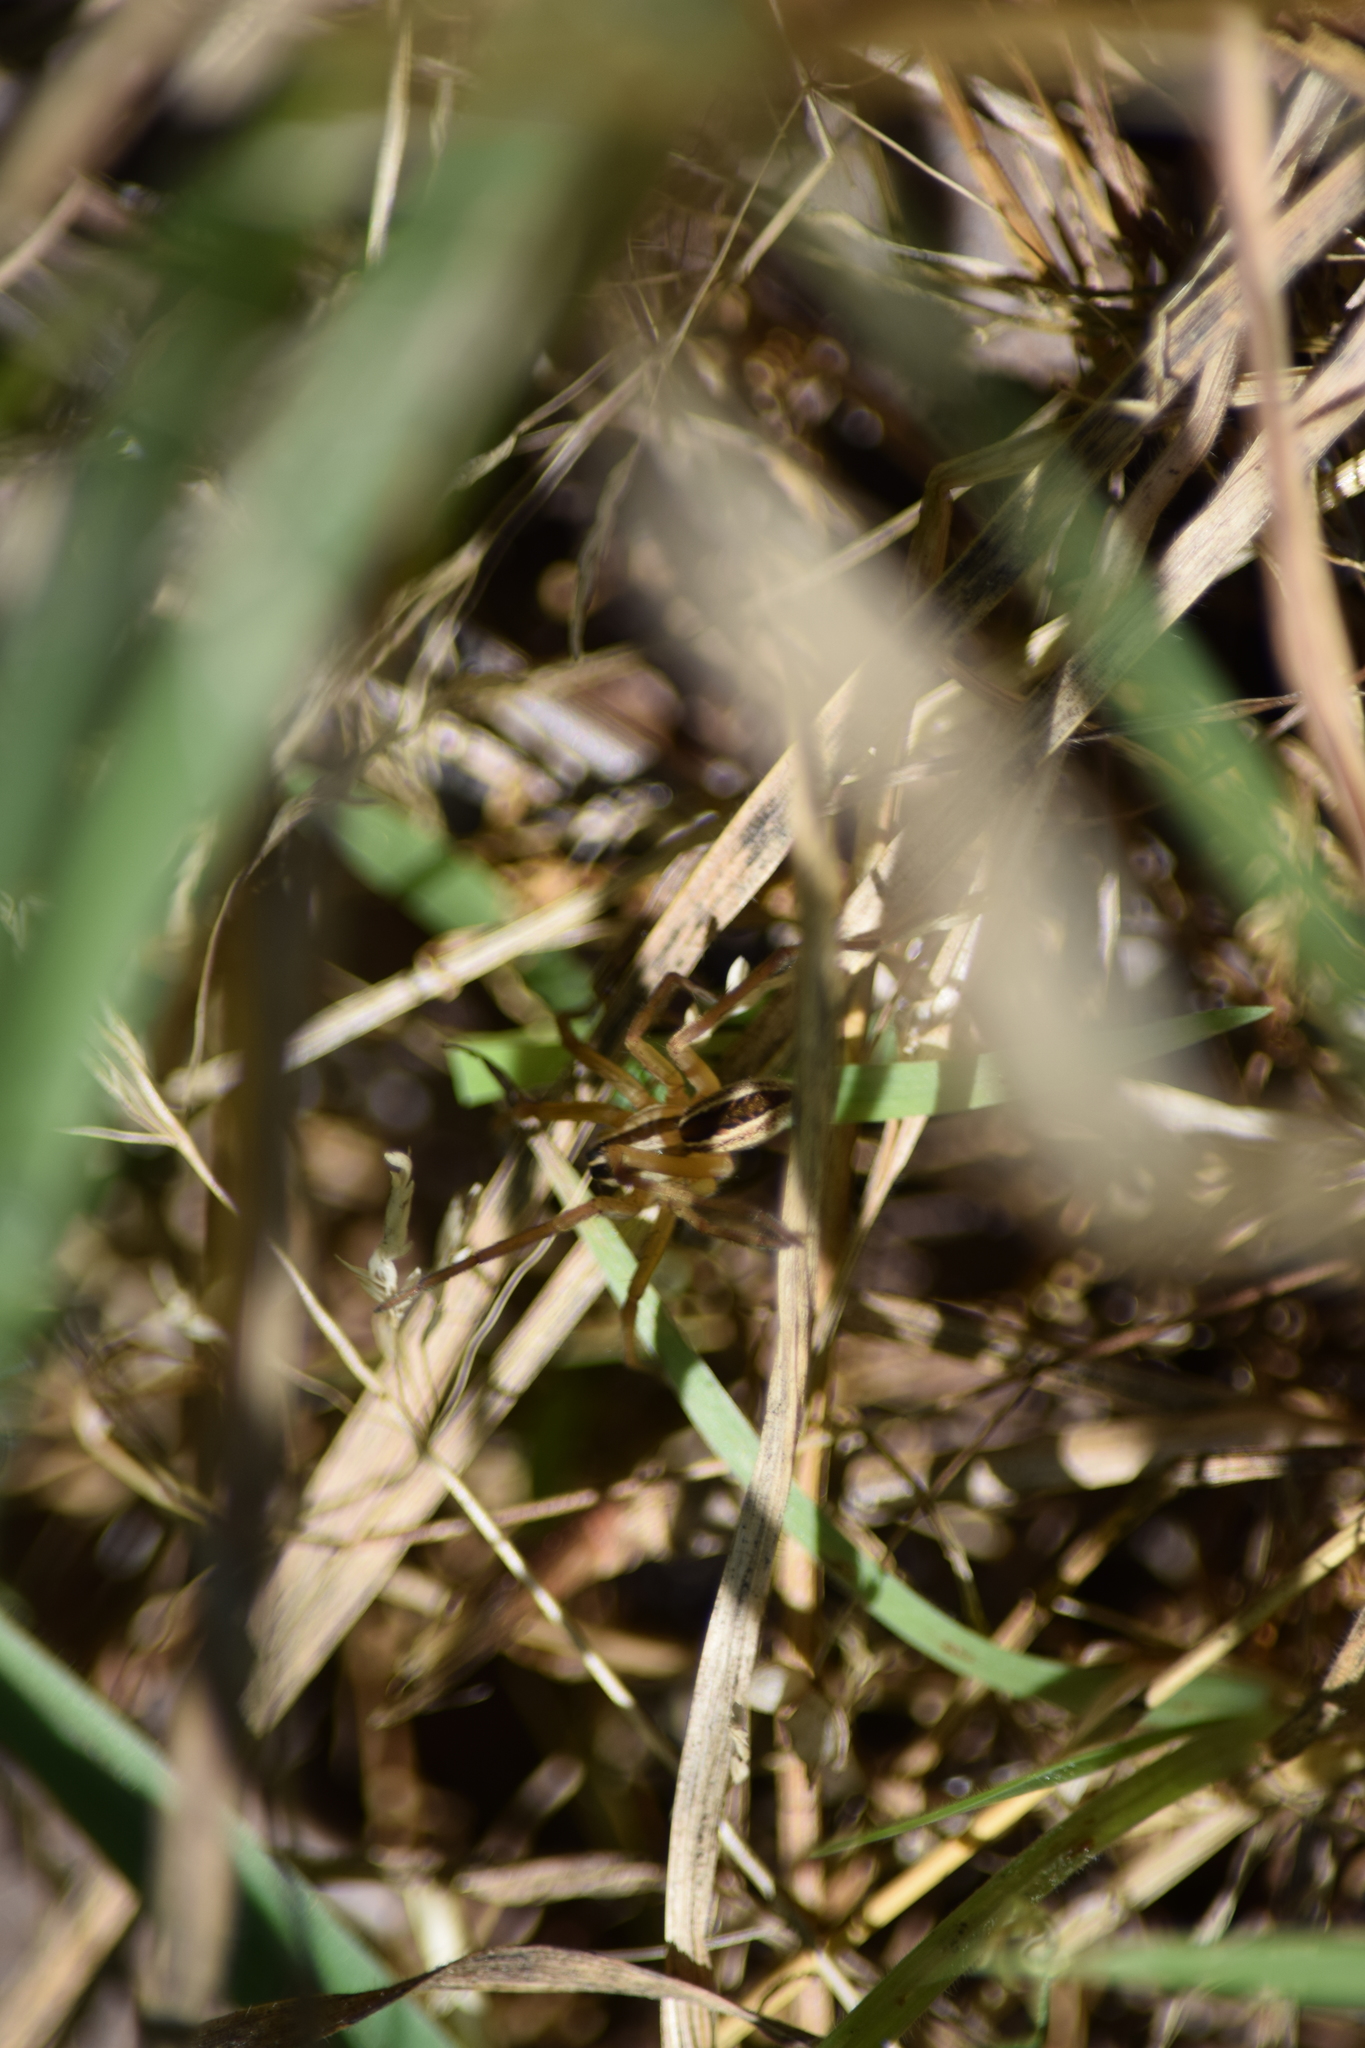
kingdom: Animalia
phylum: Arthropoda
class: Arachnida
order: Araneae
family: Lycosidae
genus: Rabidosa
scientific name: Rabidosa rabida
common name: Rabid wolf spider
